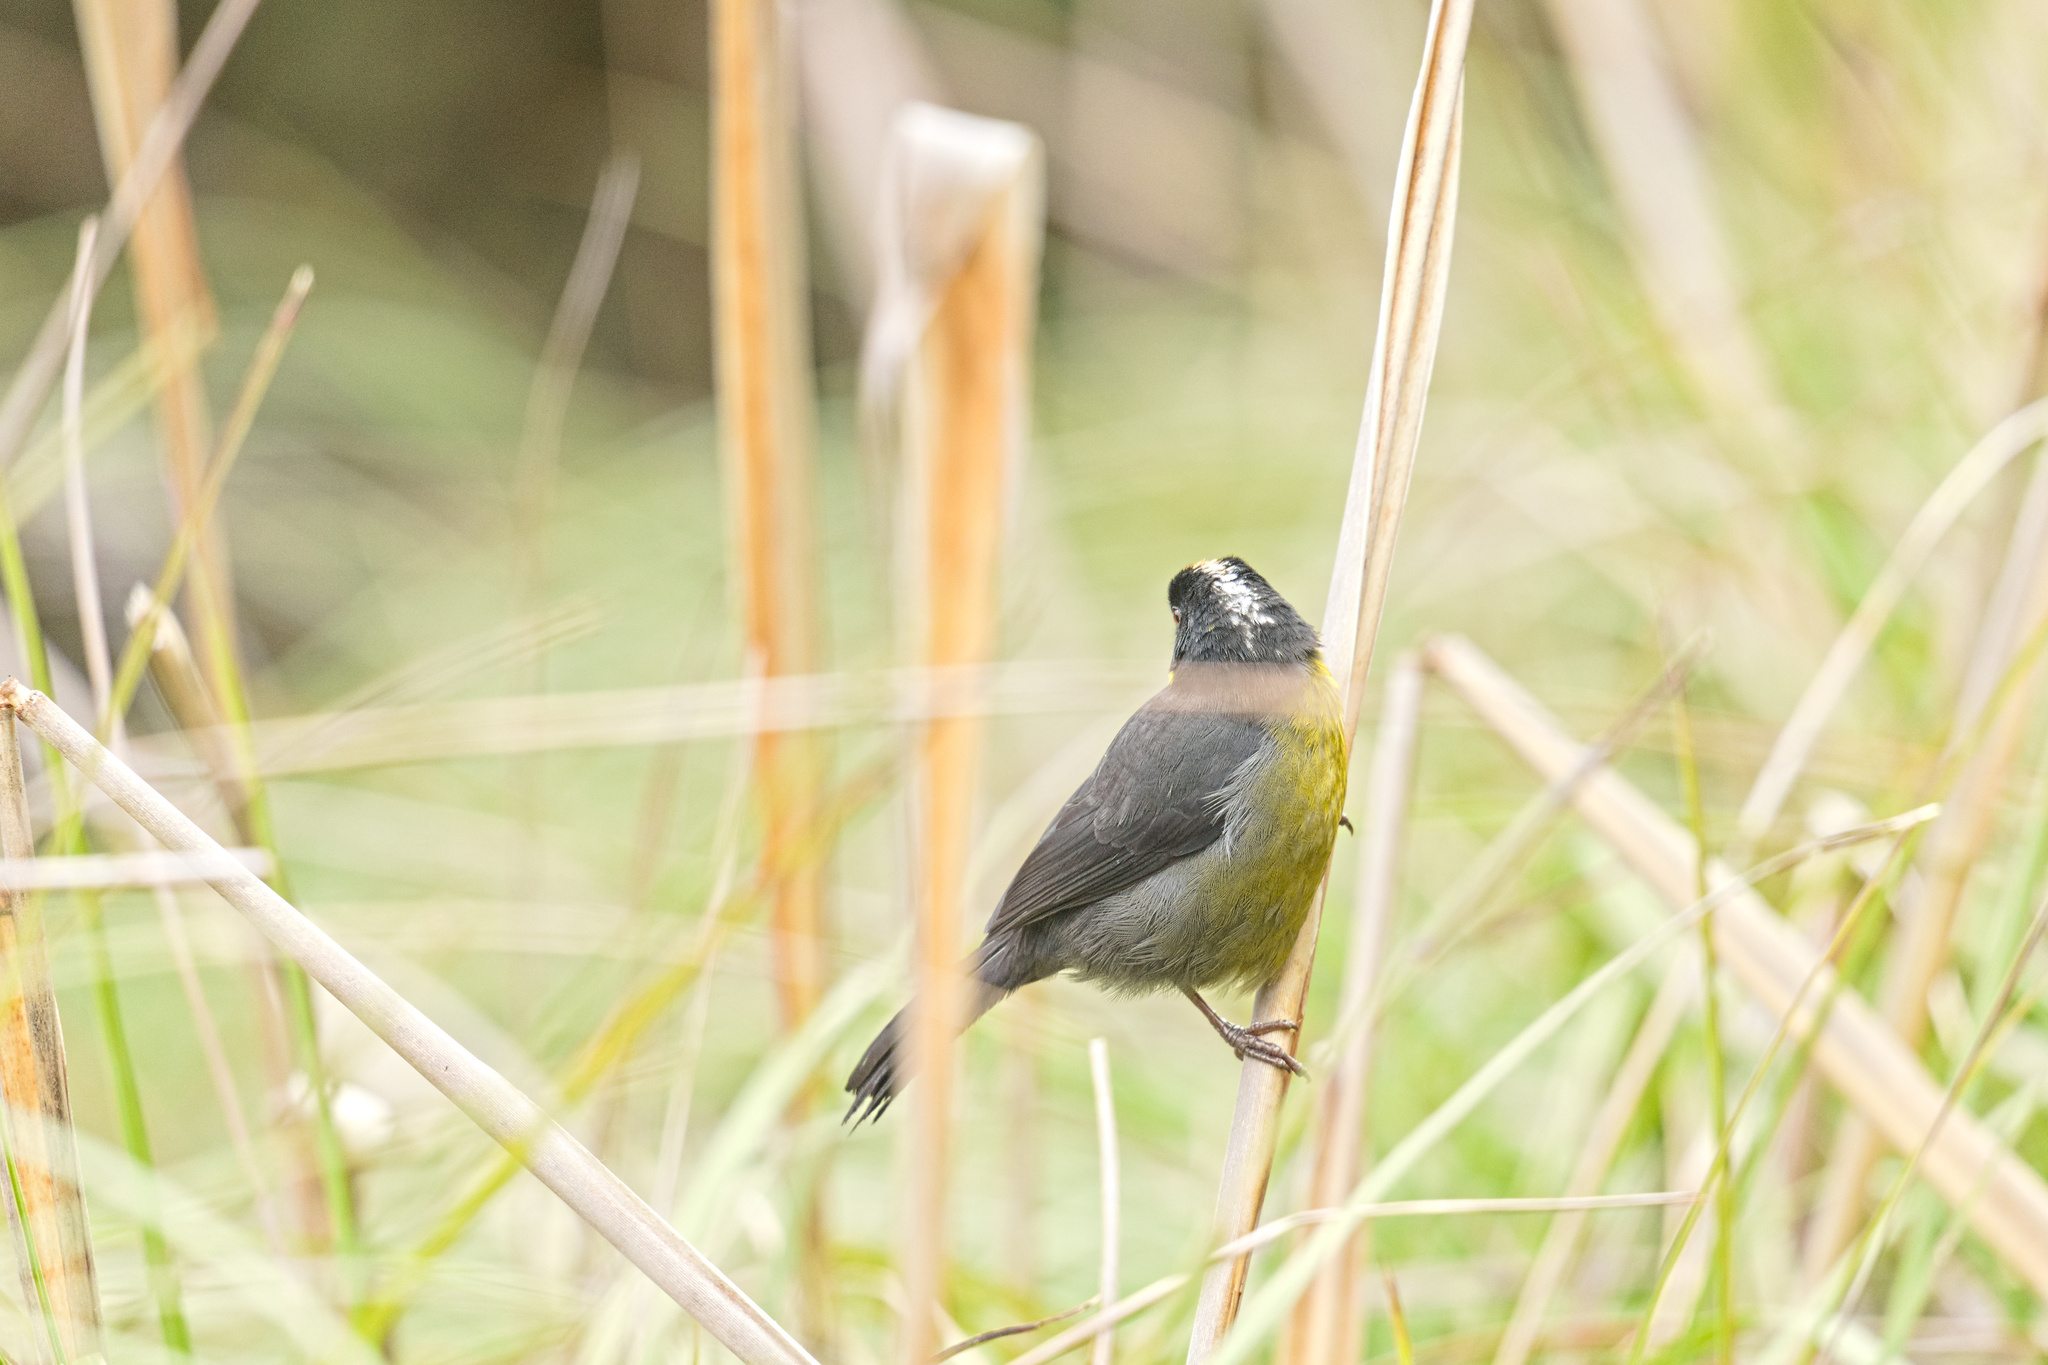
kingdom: Animalia
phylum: Chordata
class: Aves
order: Passeriformes
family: Passerellidae
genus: Atlapetes
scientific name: Atlapetes pallidinucha
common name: Pale-naped brushfinch
